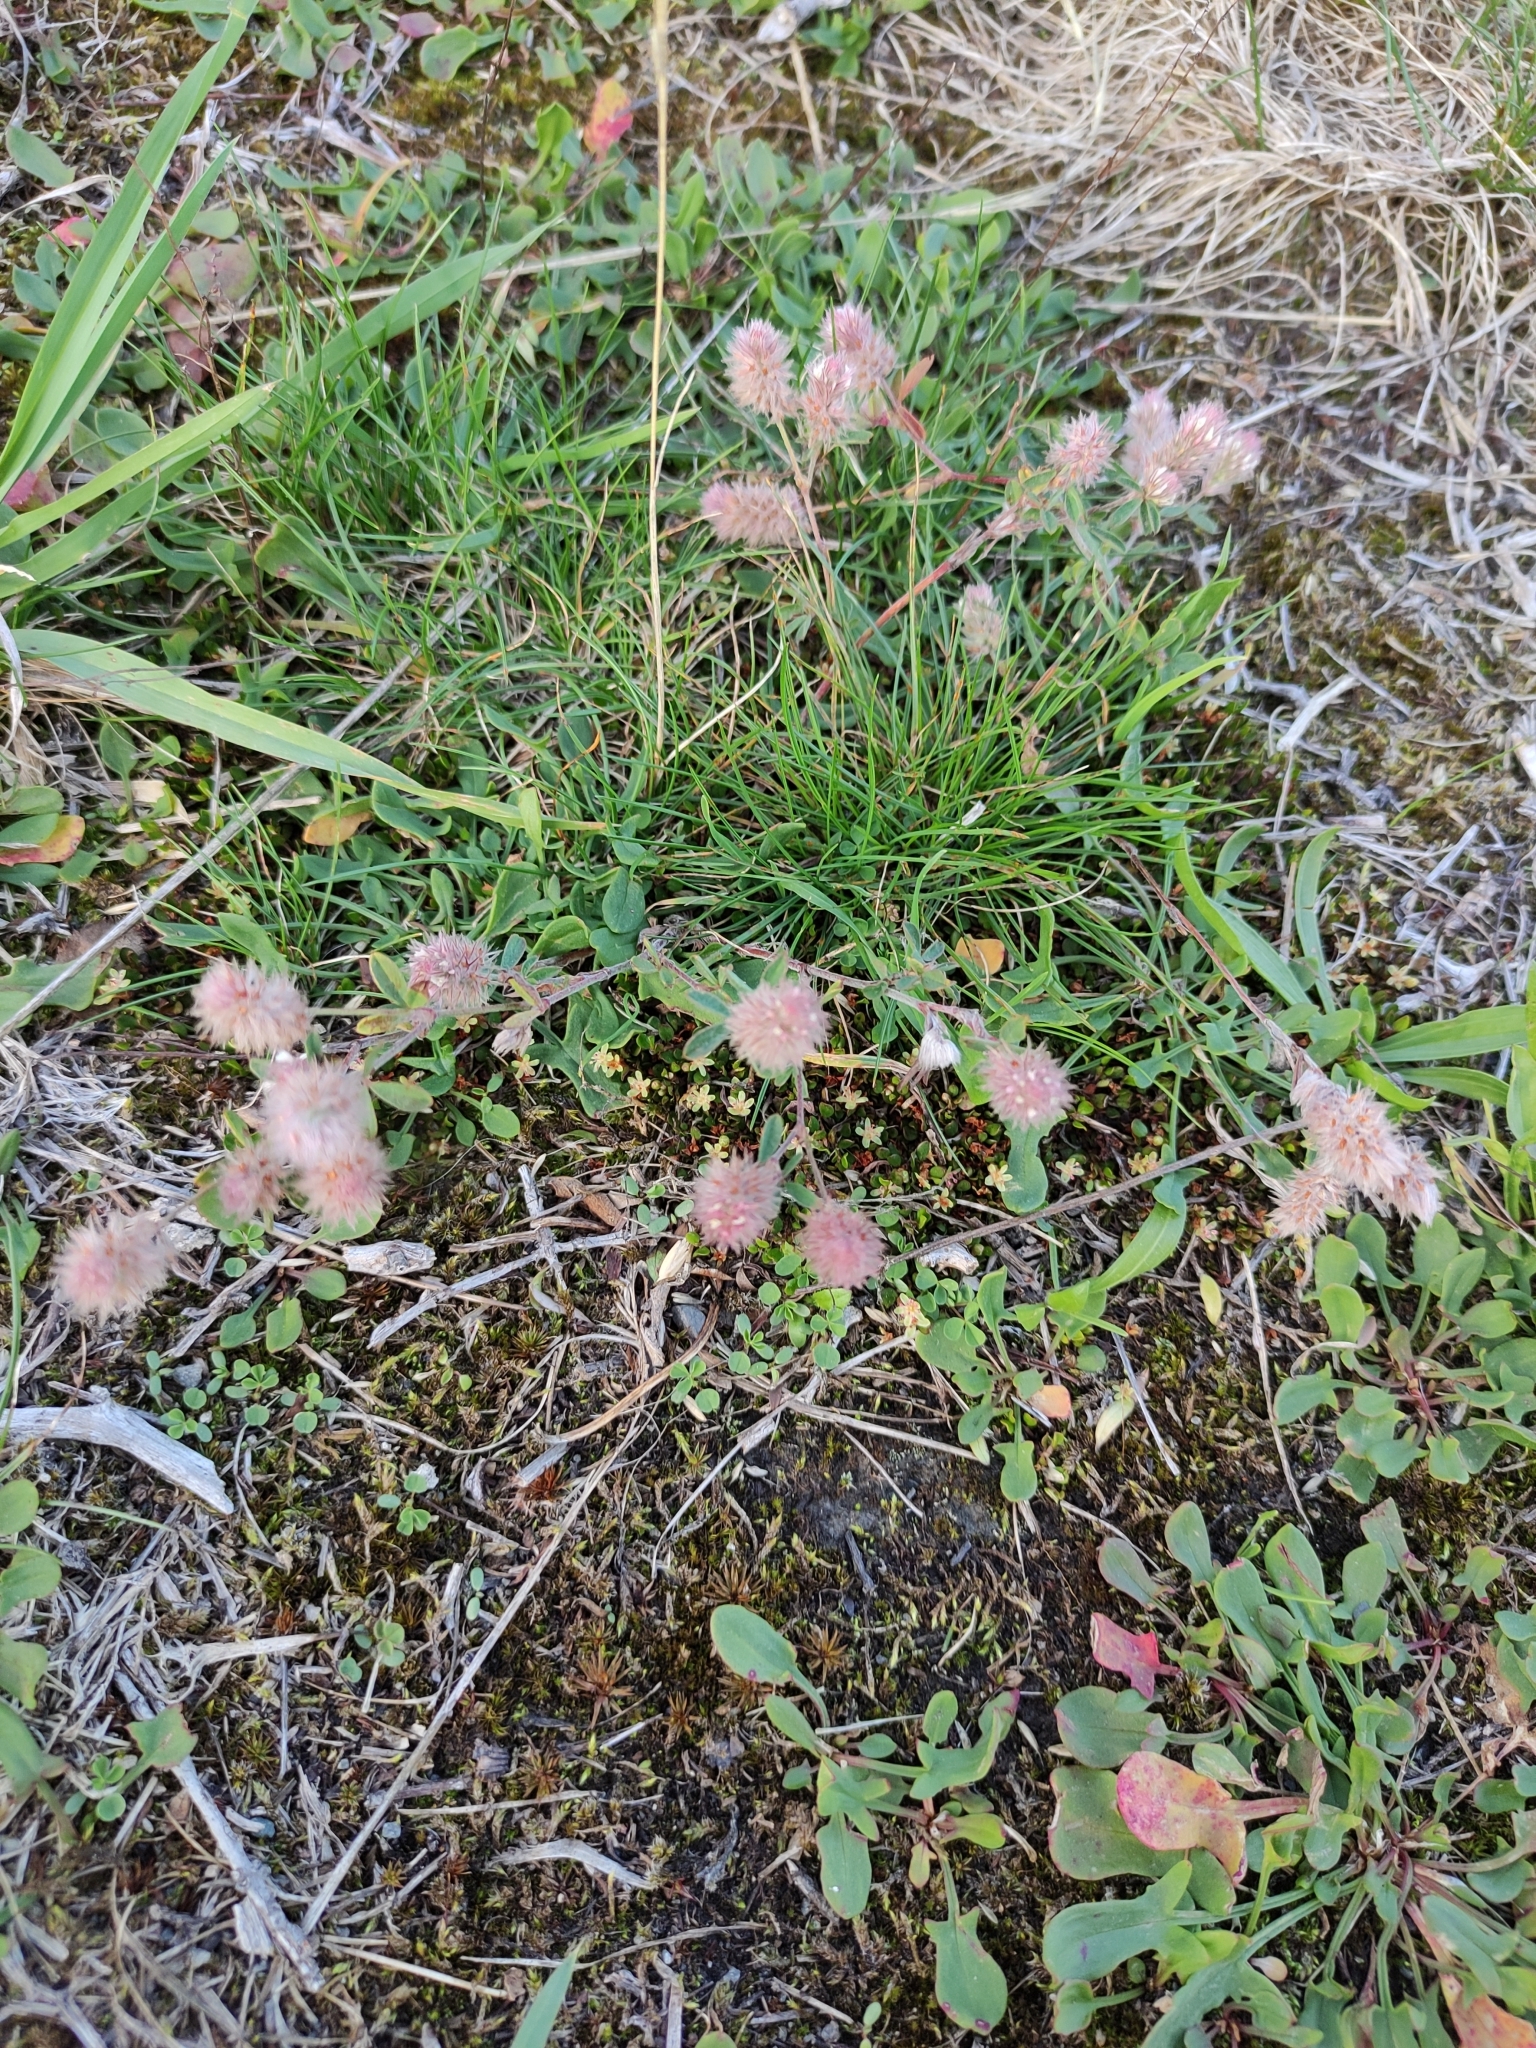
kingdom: Plantae
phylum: Tracheophyta
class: Magnoliopsida
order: Fabales
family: Fabaceae
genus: Trifolium
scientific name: Trifolium arvense
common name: Hare's-foot clover
